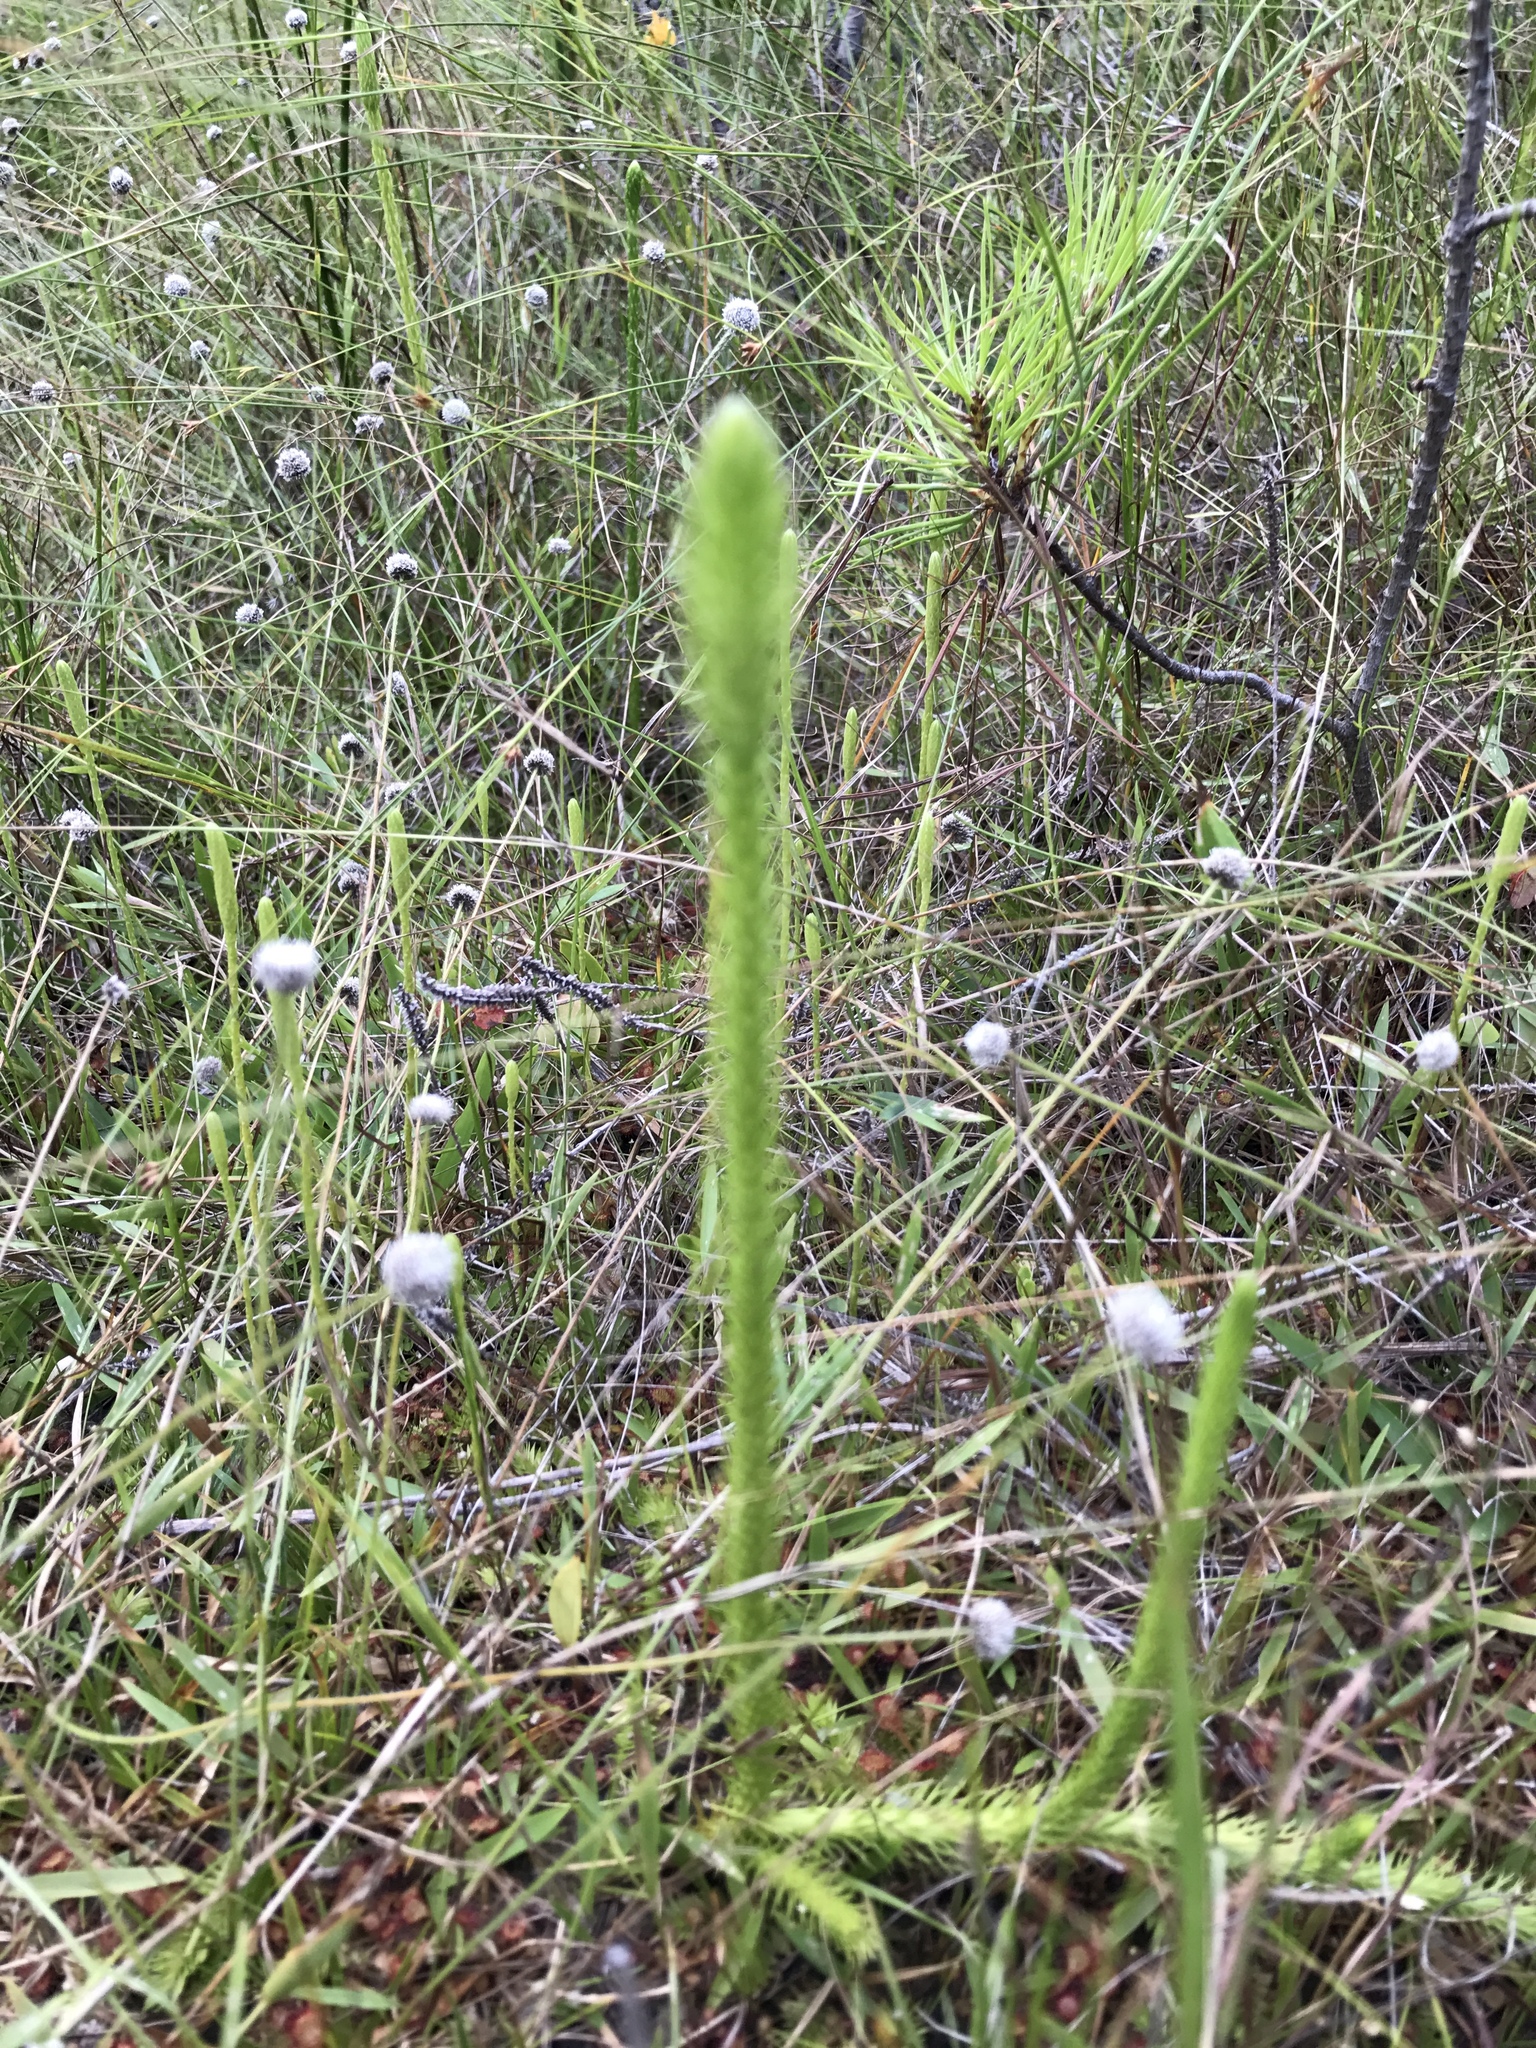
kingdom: Plantae
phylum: Tracheophyta
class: Lycopodiopsida
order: Lycopodiales
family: Lycopodiaceae
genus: Lycopodiella
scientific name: Lycopodiella alopecuroides
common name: Foxtail clubmoss
